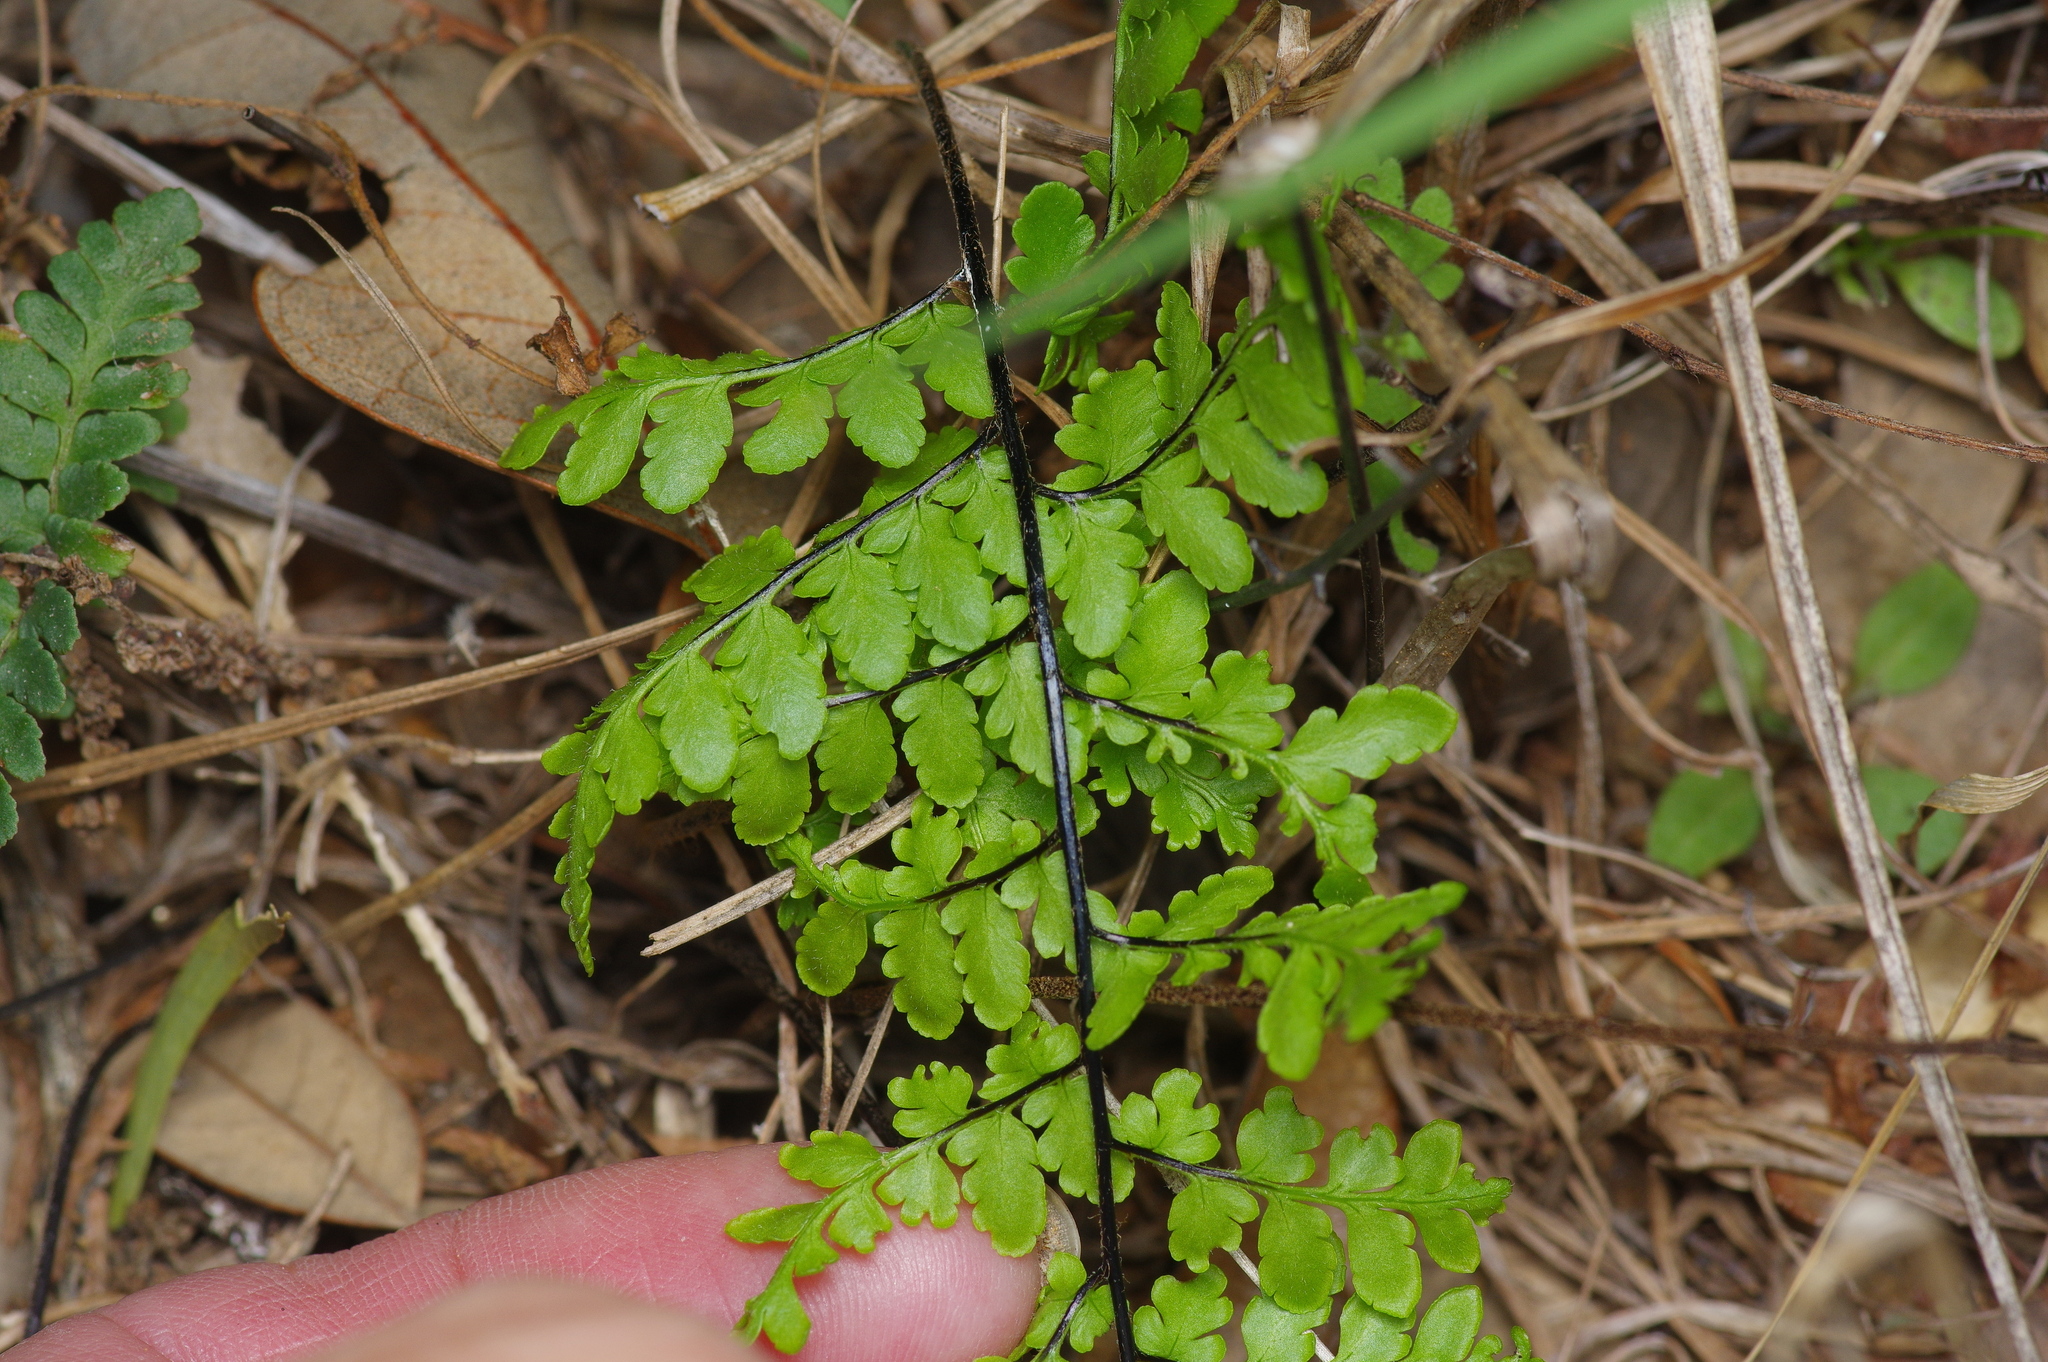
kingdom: Plantae
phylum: Tracheophyta
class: Polypodiopsida
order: Polypodiales
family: Pteridaceae
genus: Myriopteris
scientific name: Myriopteris alabamensis
